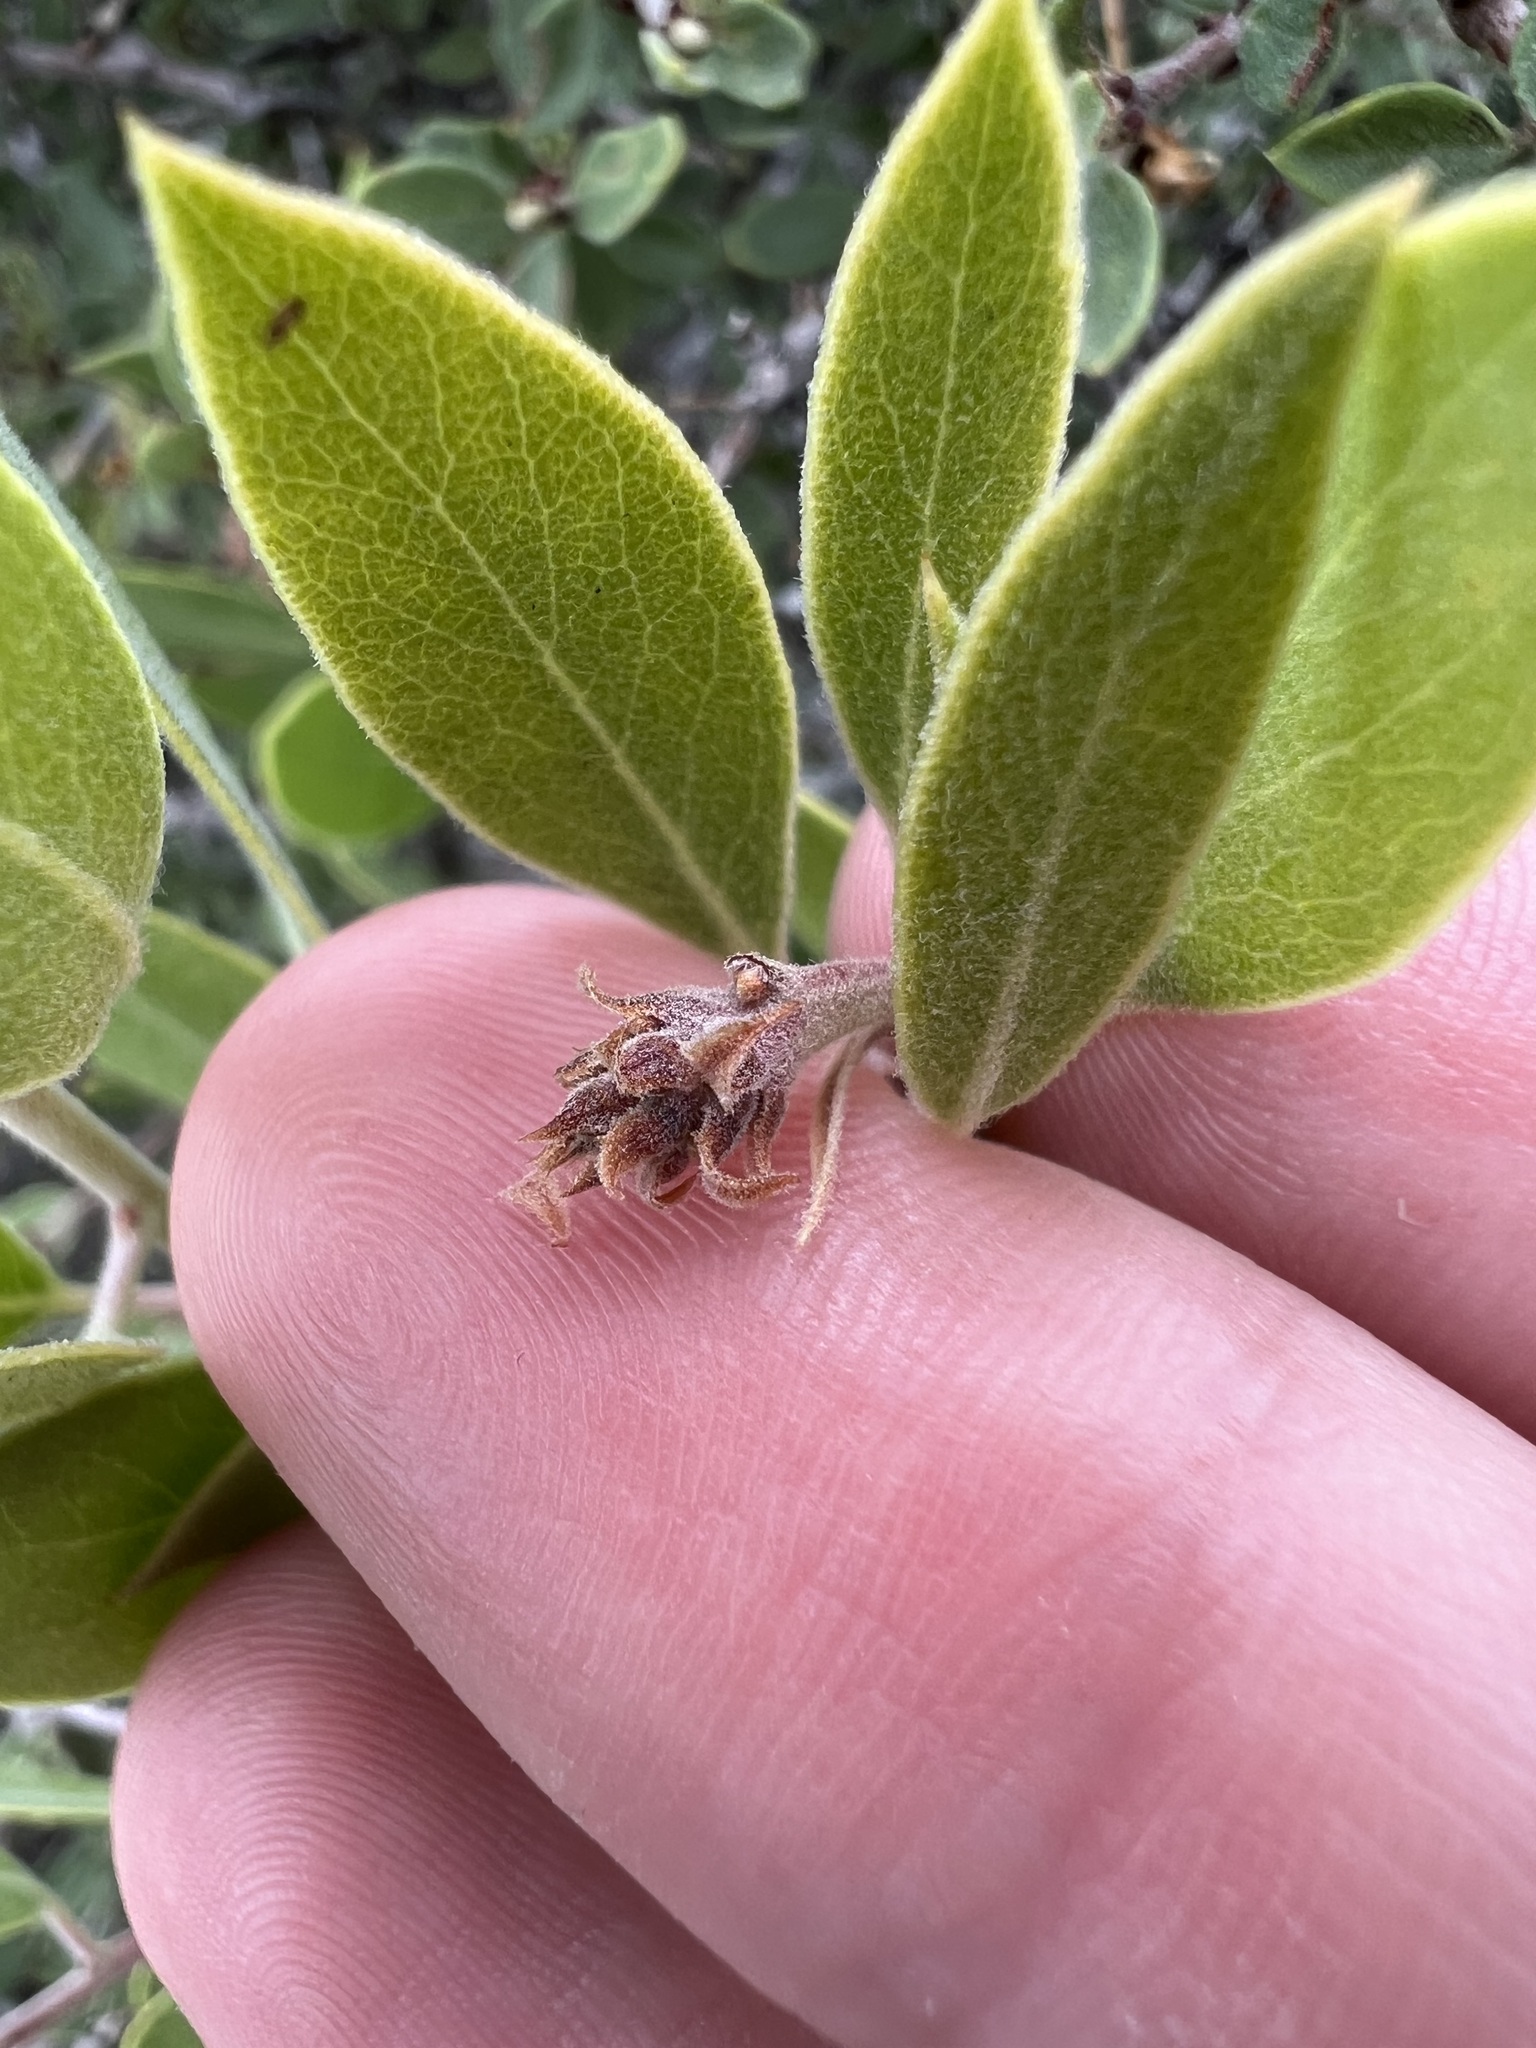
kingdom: Plantae
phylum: Tracheophyta
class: Magnoliopsida
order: Ericales
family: Ericaceae
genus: Arctostaphylos
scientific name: Arctostaphylos pungens
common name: Mexican manzanita
